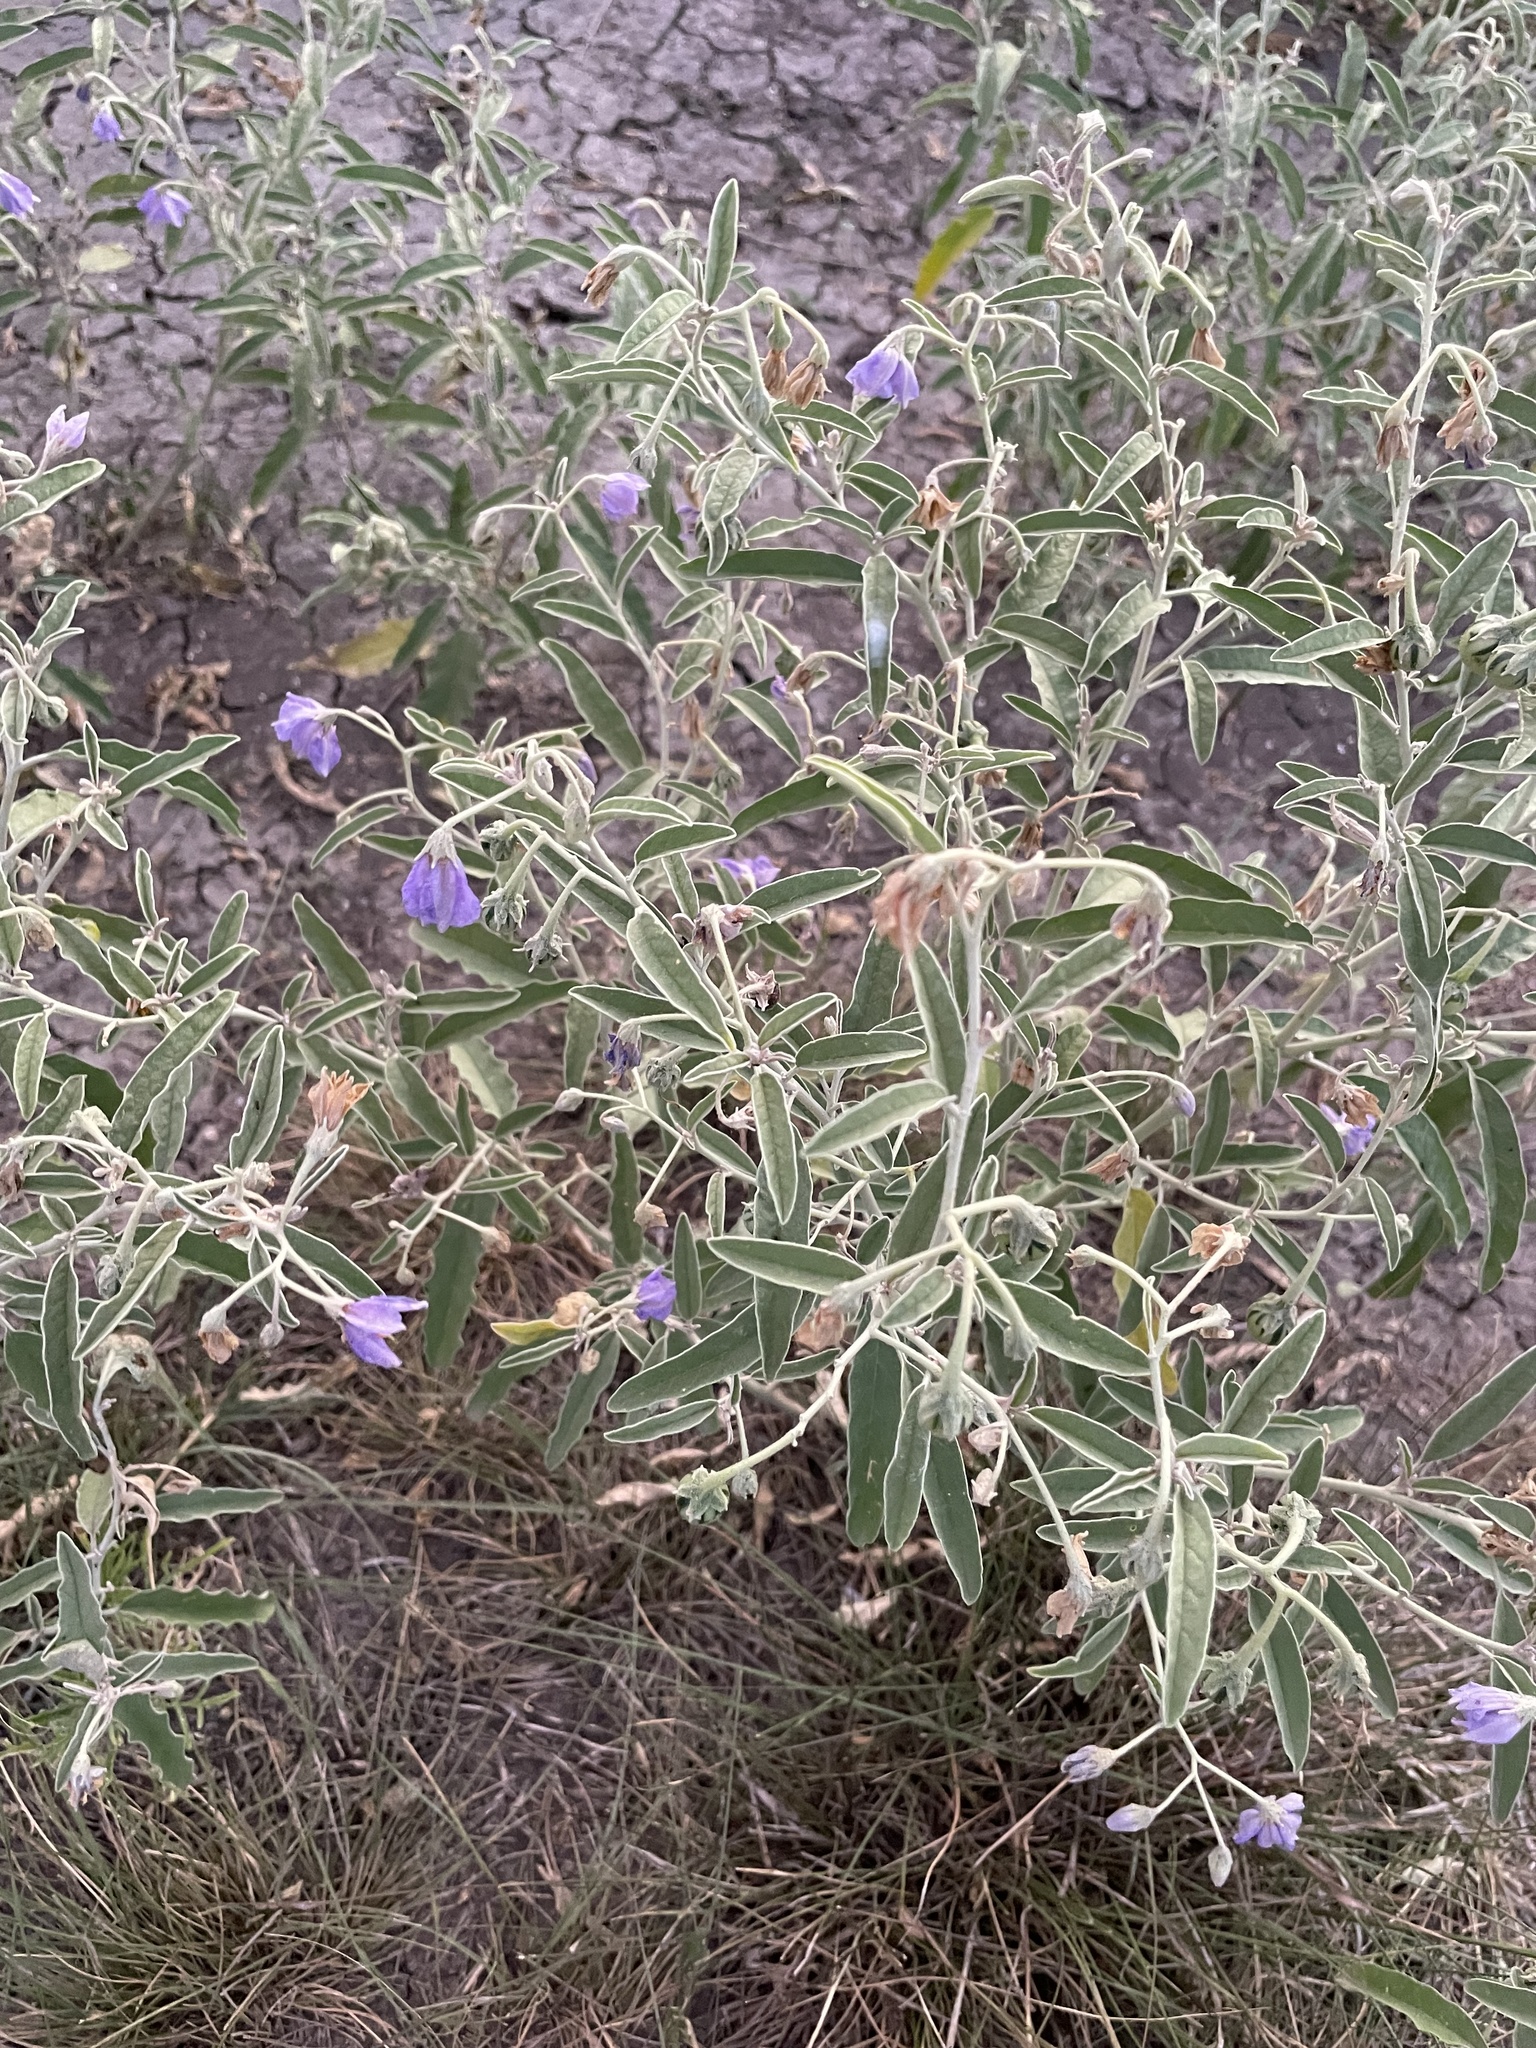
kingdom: Plantae
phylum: Tracheophyta
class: Magnoliopsida
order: Solanales
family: Solanaceae
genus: Solanum
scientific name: Solanum elaeagnifolium
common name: Silverleaf nightshade
